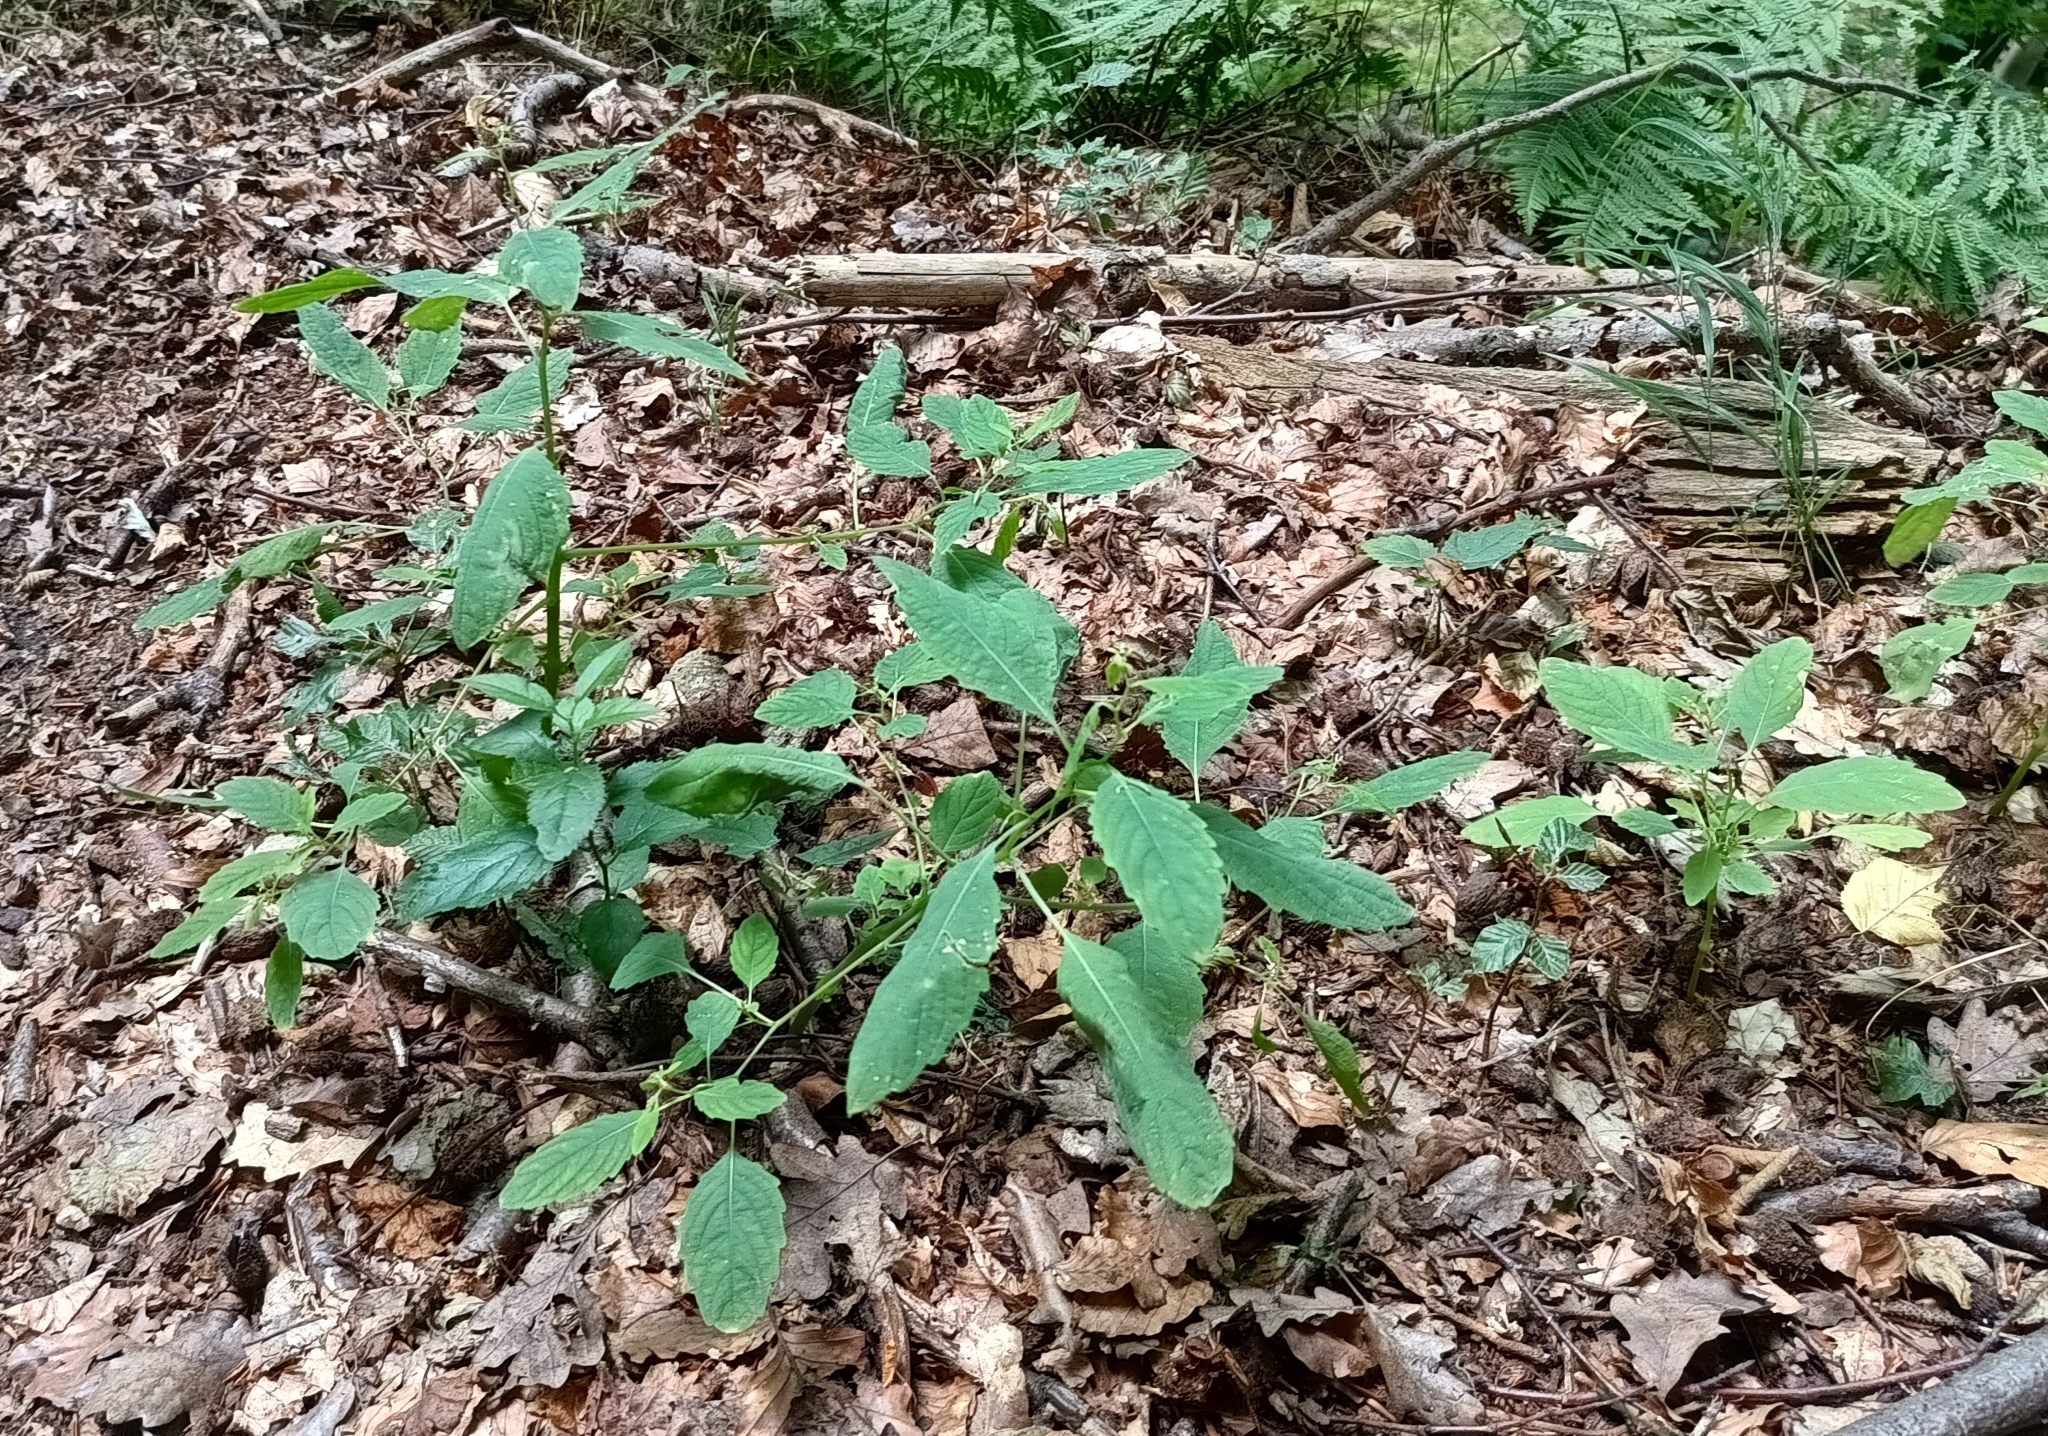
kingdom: Plantae
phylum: Tracheophyta
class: Magnoliopsida
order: Ericales
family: Balsaminaceae
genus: Impatiens
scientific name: Impatiens noli-tangere
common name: Touch-me-not balsam
